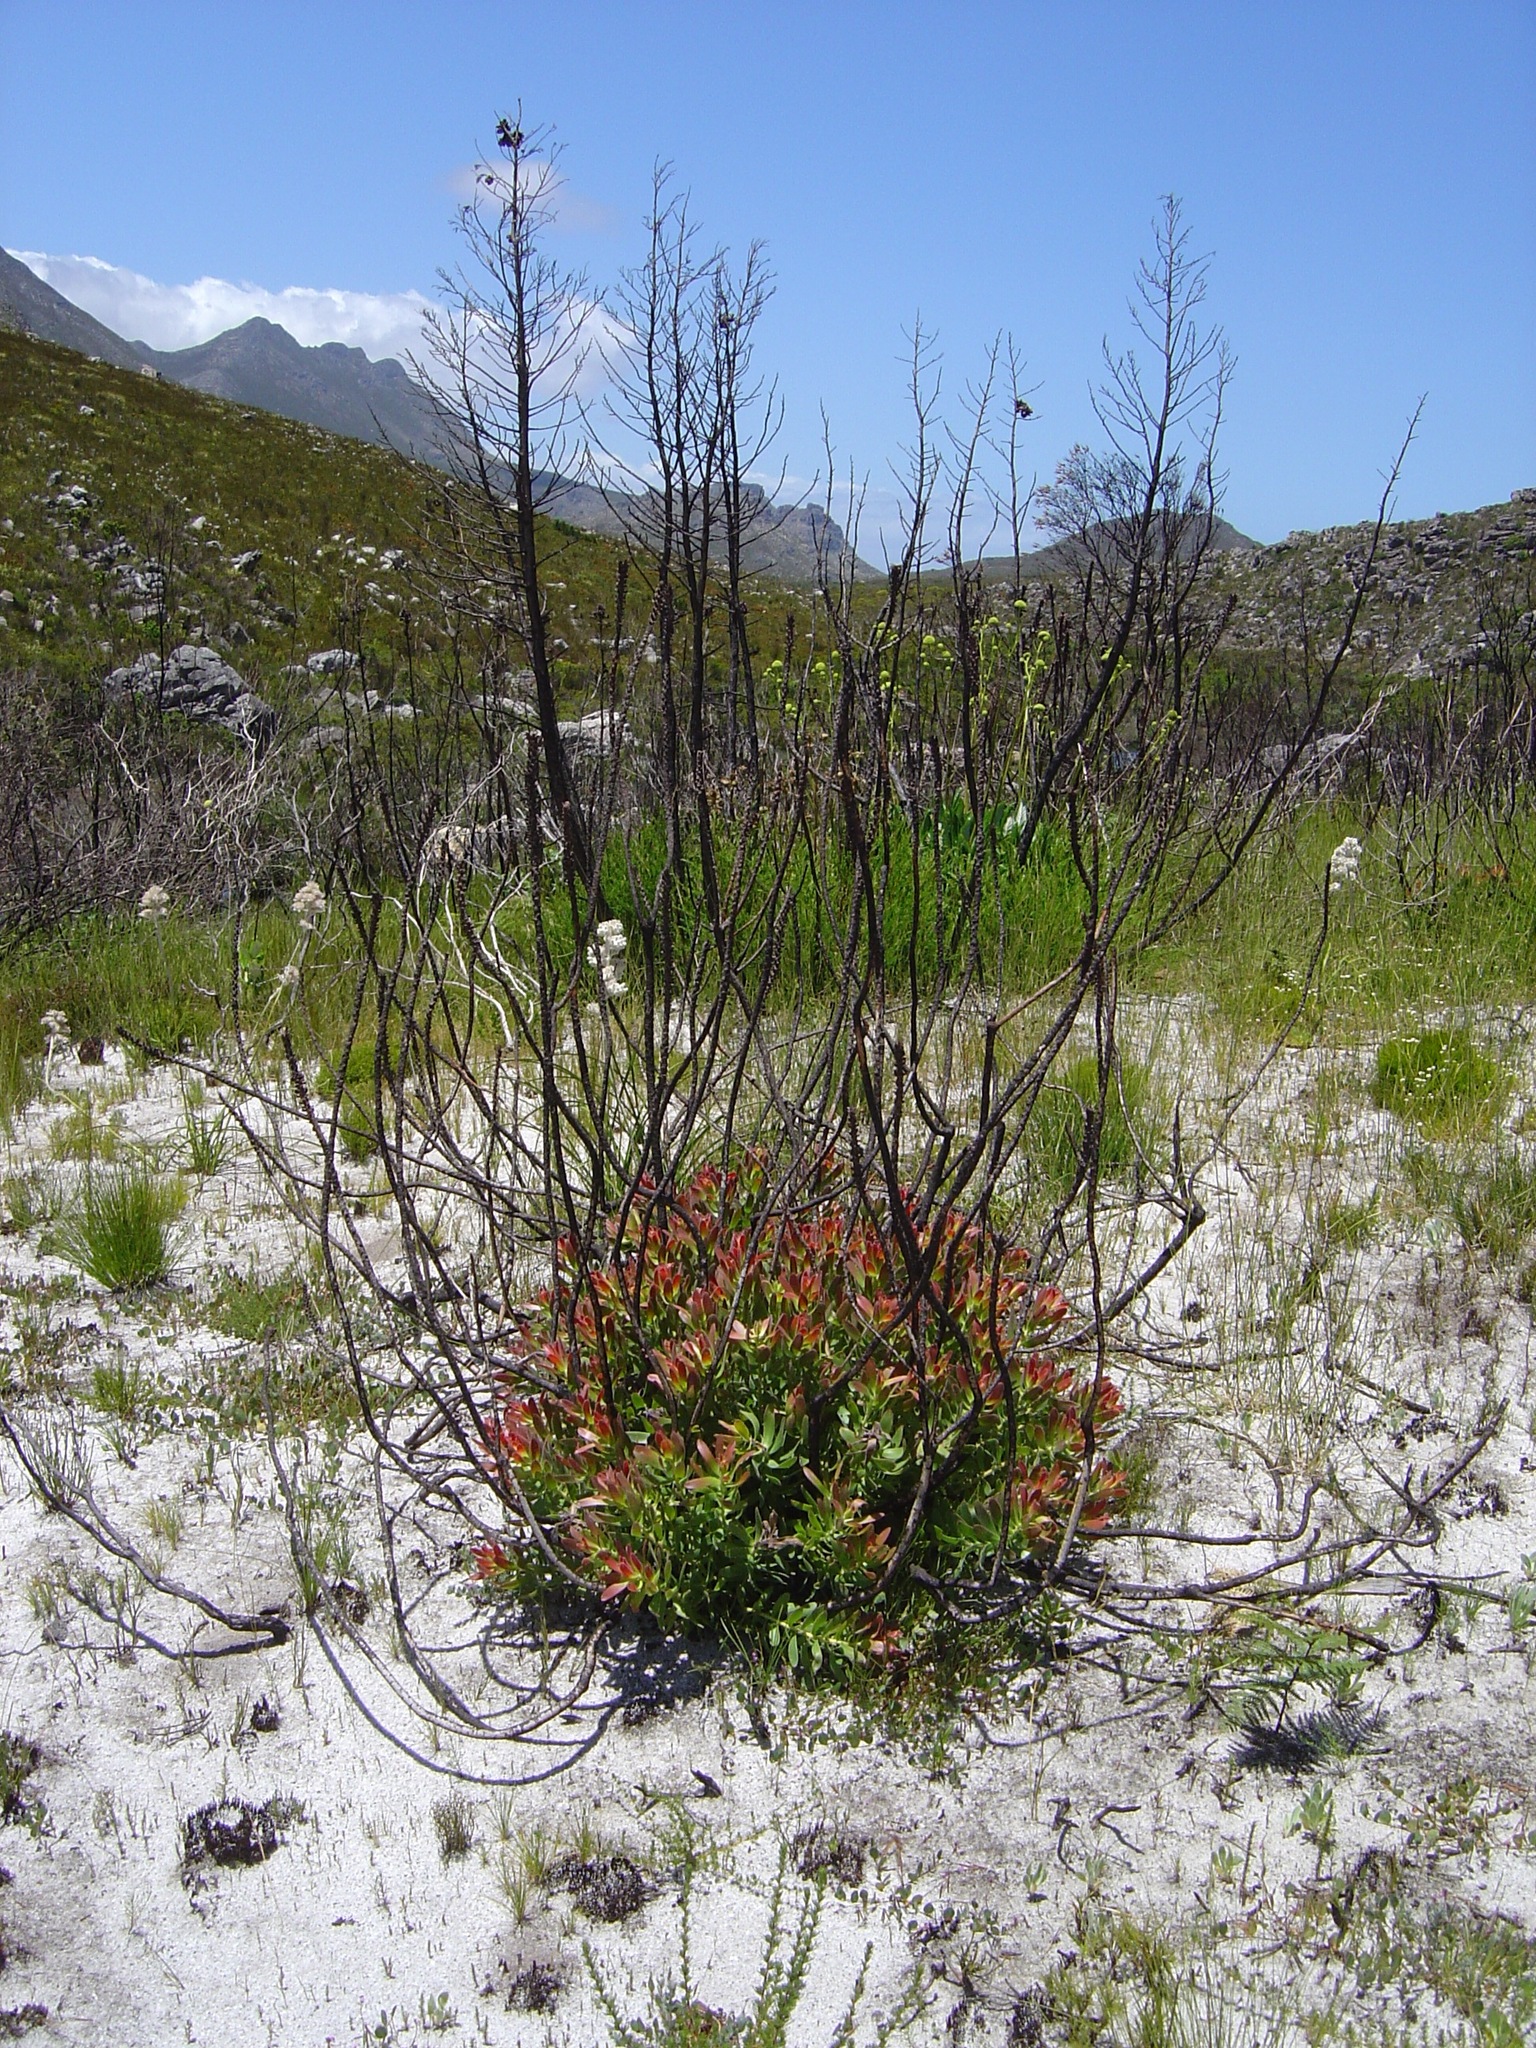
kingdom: Plantae
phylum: Tracheophyta
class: Magnoliopsida
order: Proteales
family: Proteaceae
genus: Mimetes
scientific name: Mimetes cucullatus
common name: Common pagoda
